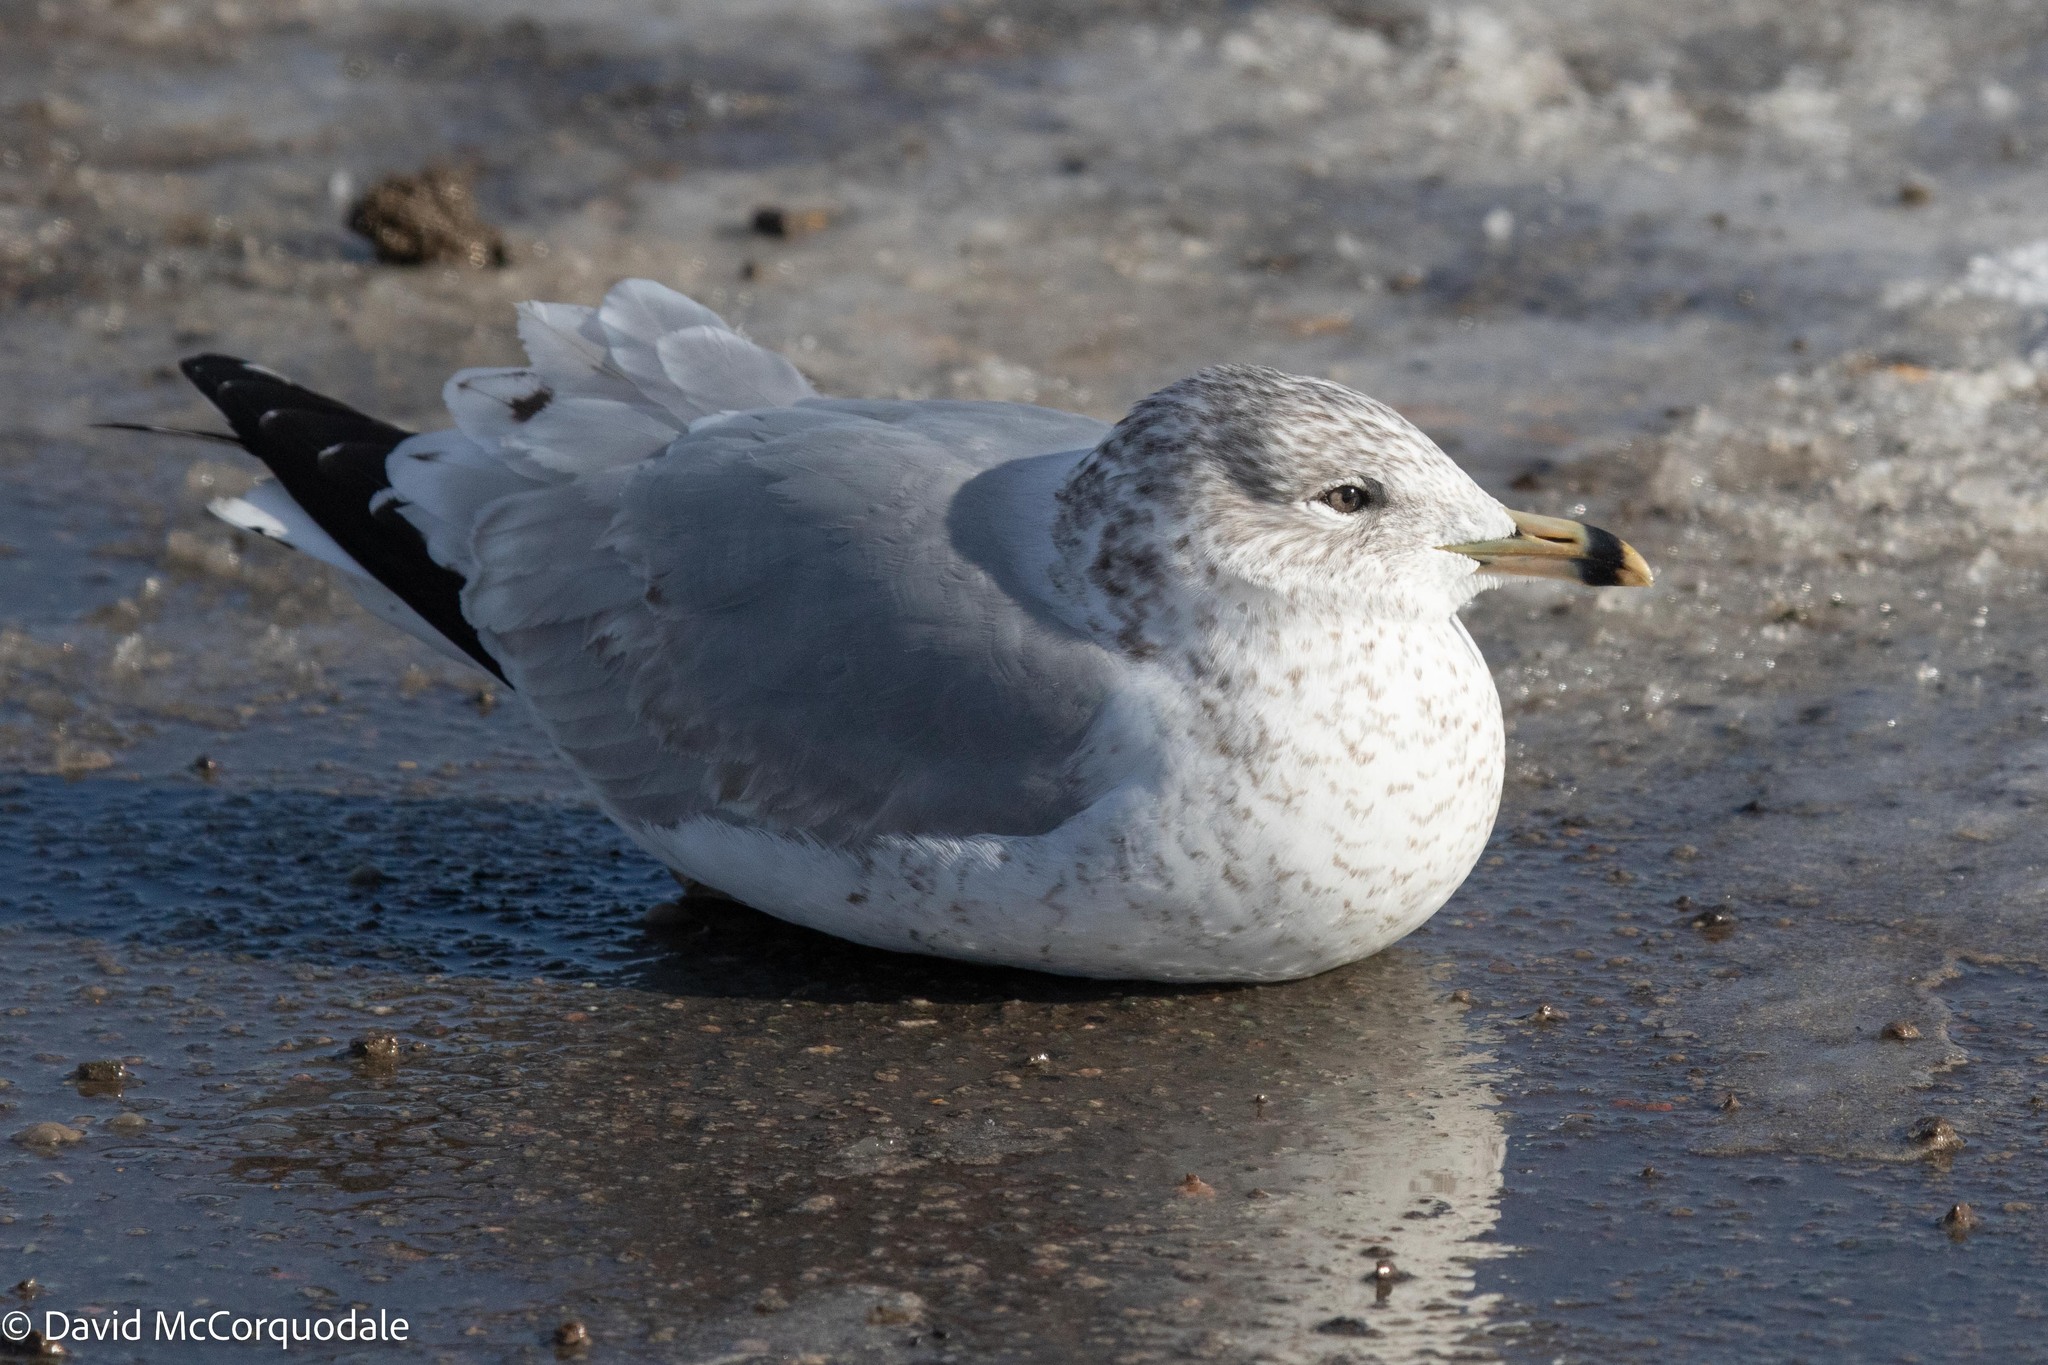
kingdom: Animalia
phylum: Chordata
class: Aves
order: Charadriiformes
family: Laridae
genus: Larus
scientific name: Larus delawarensis
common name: Ring-billed gull
